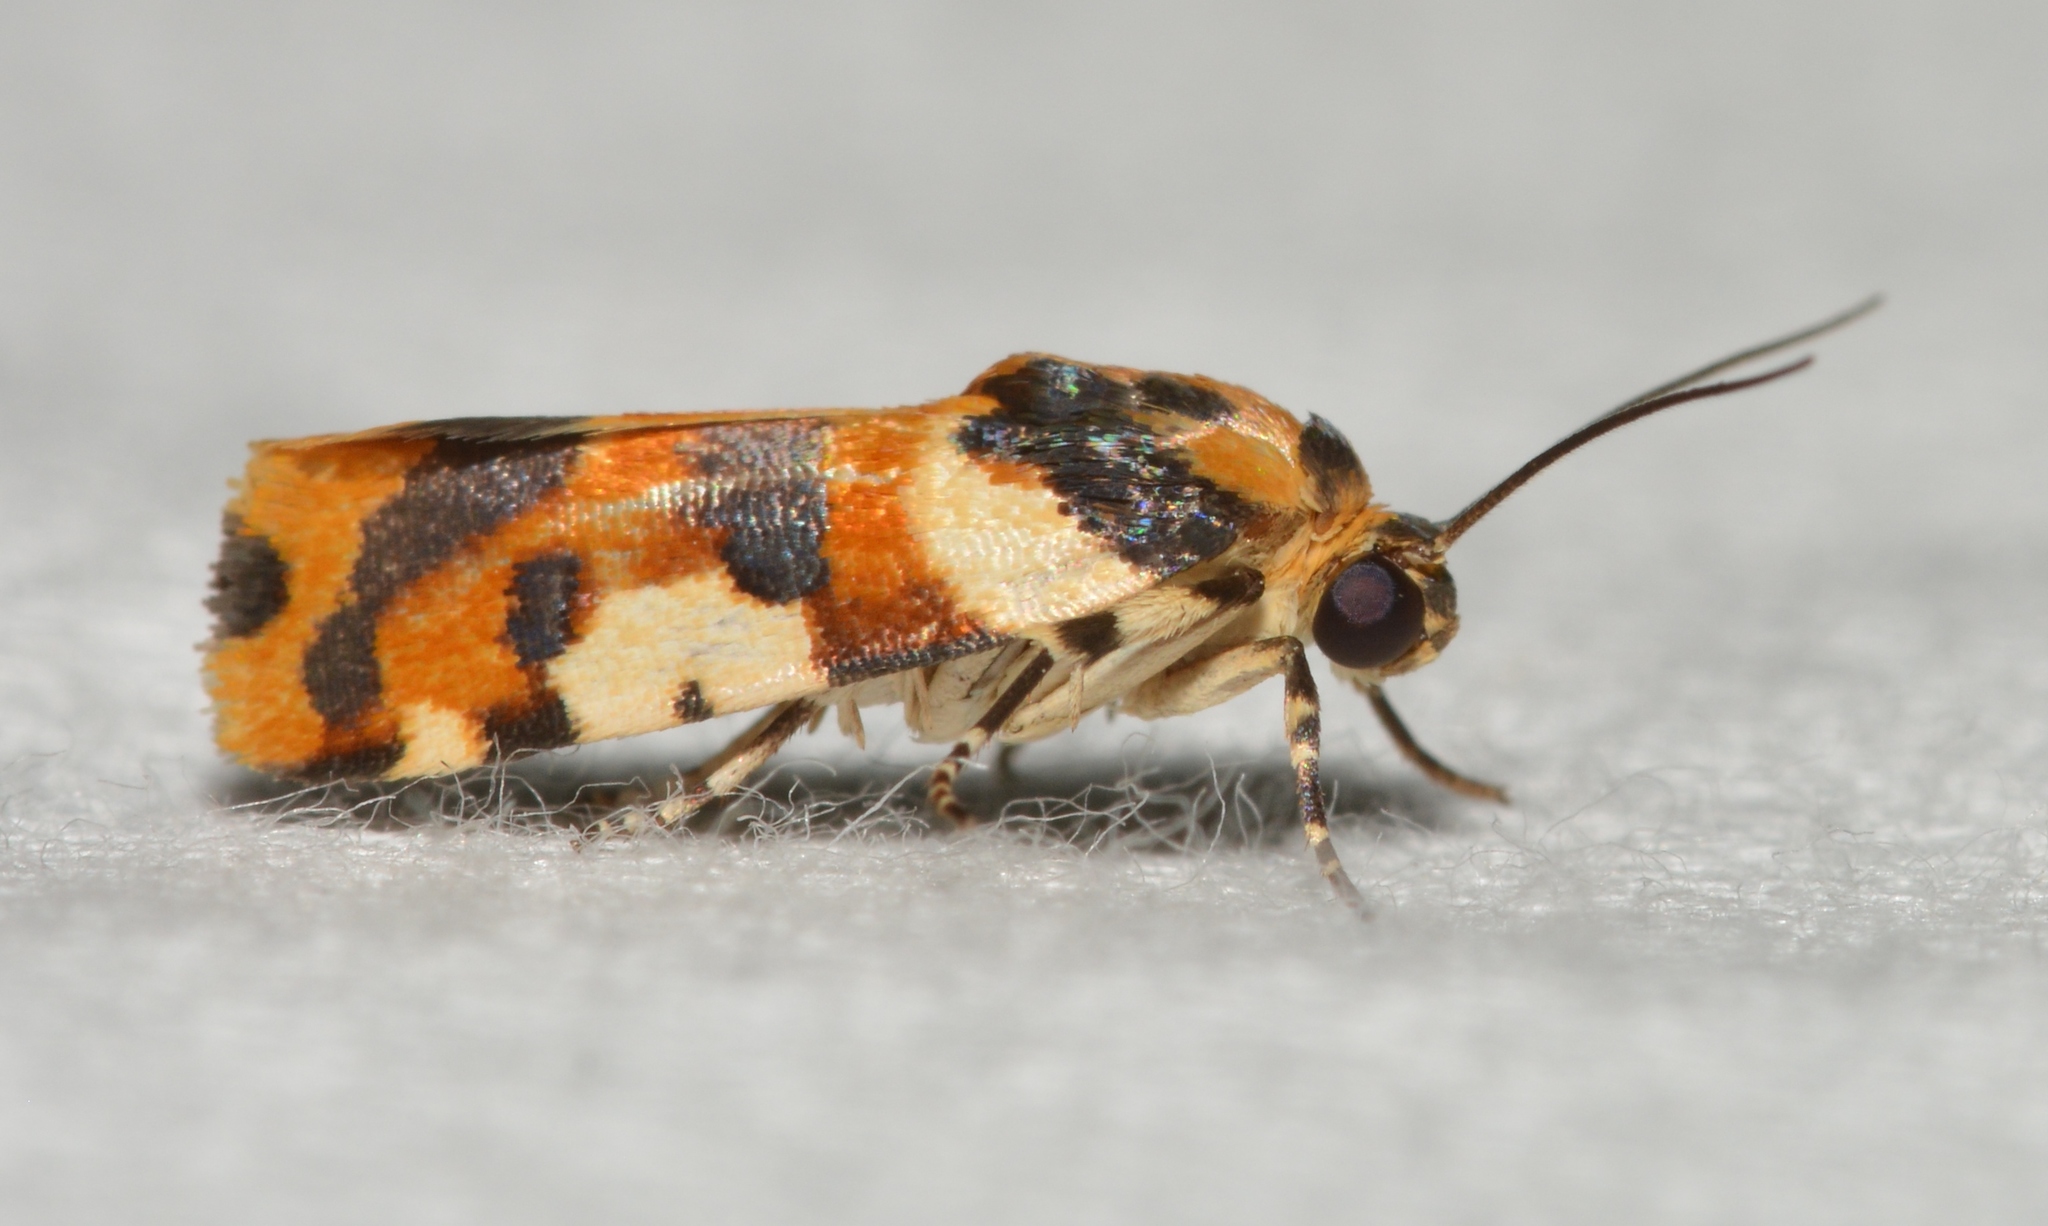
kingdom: Animalia
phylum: Arthropoda
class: Insecta
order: Lepidoptera
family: Noctuidae
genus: Acontia
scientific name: Acontia dama
